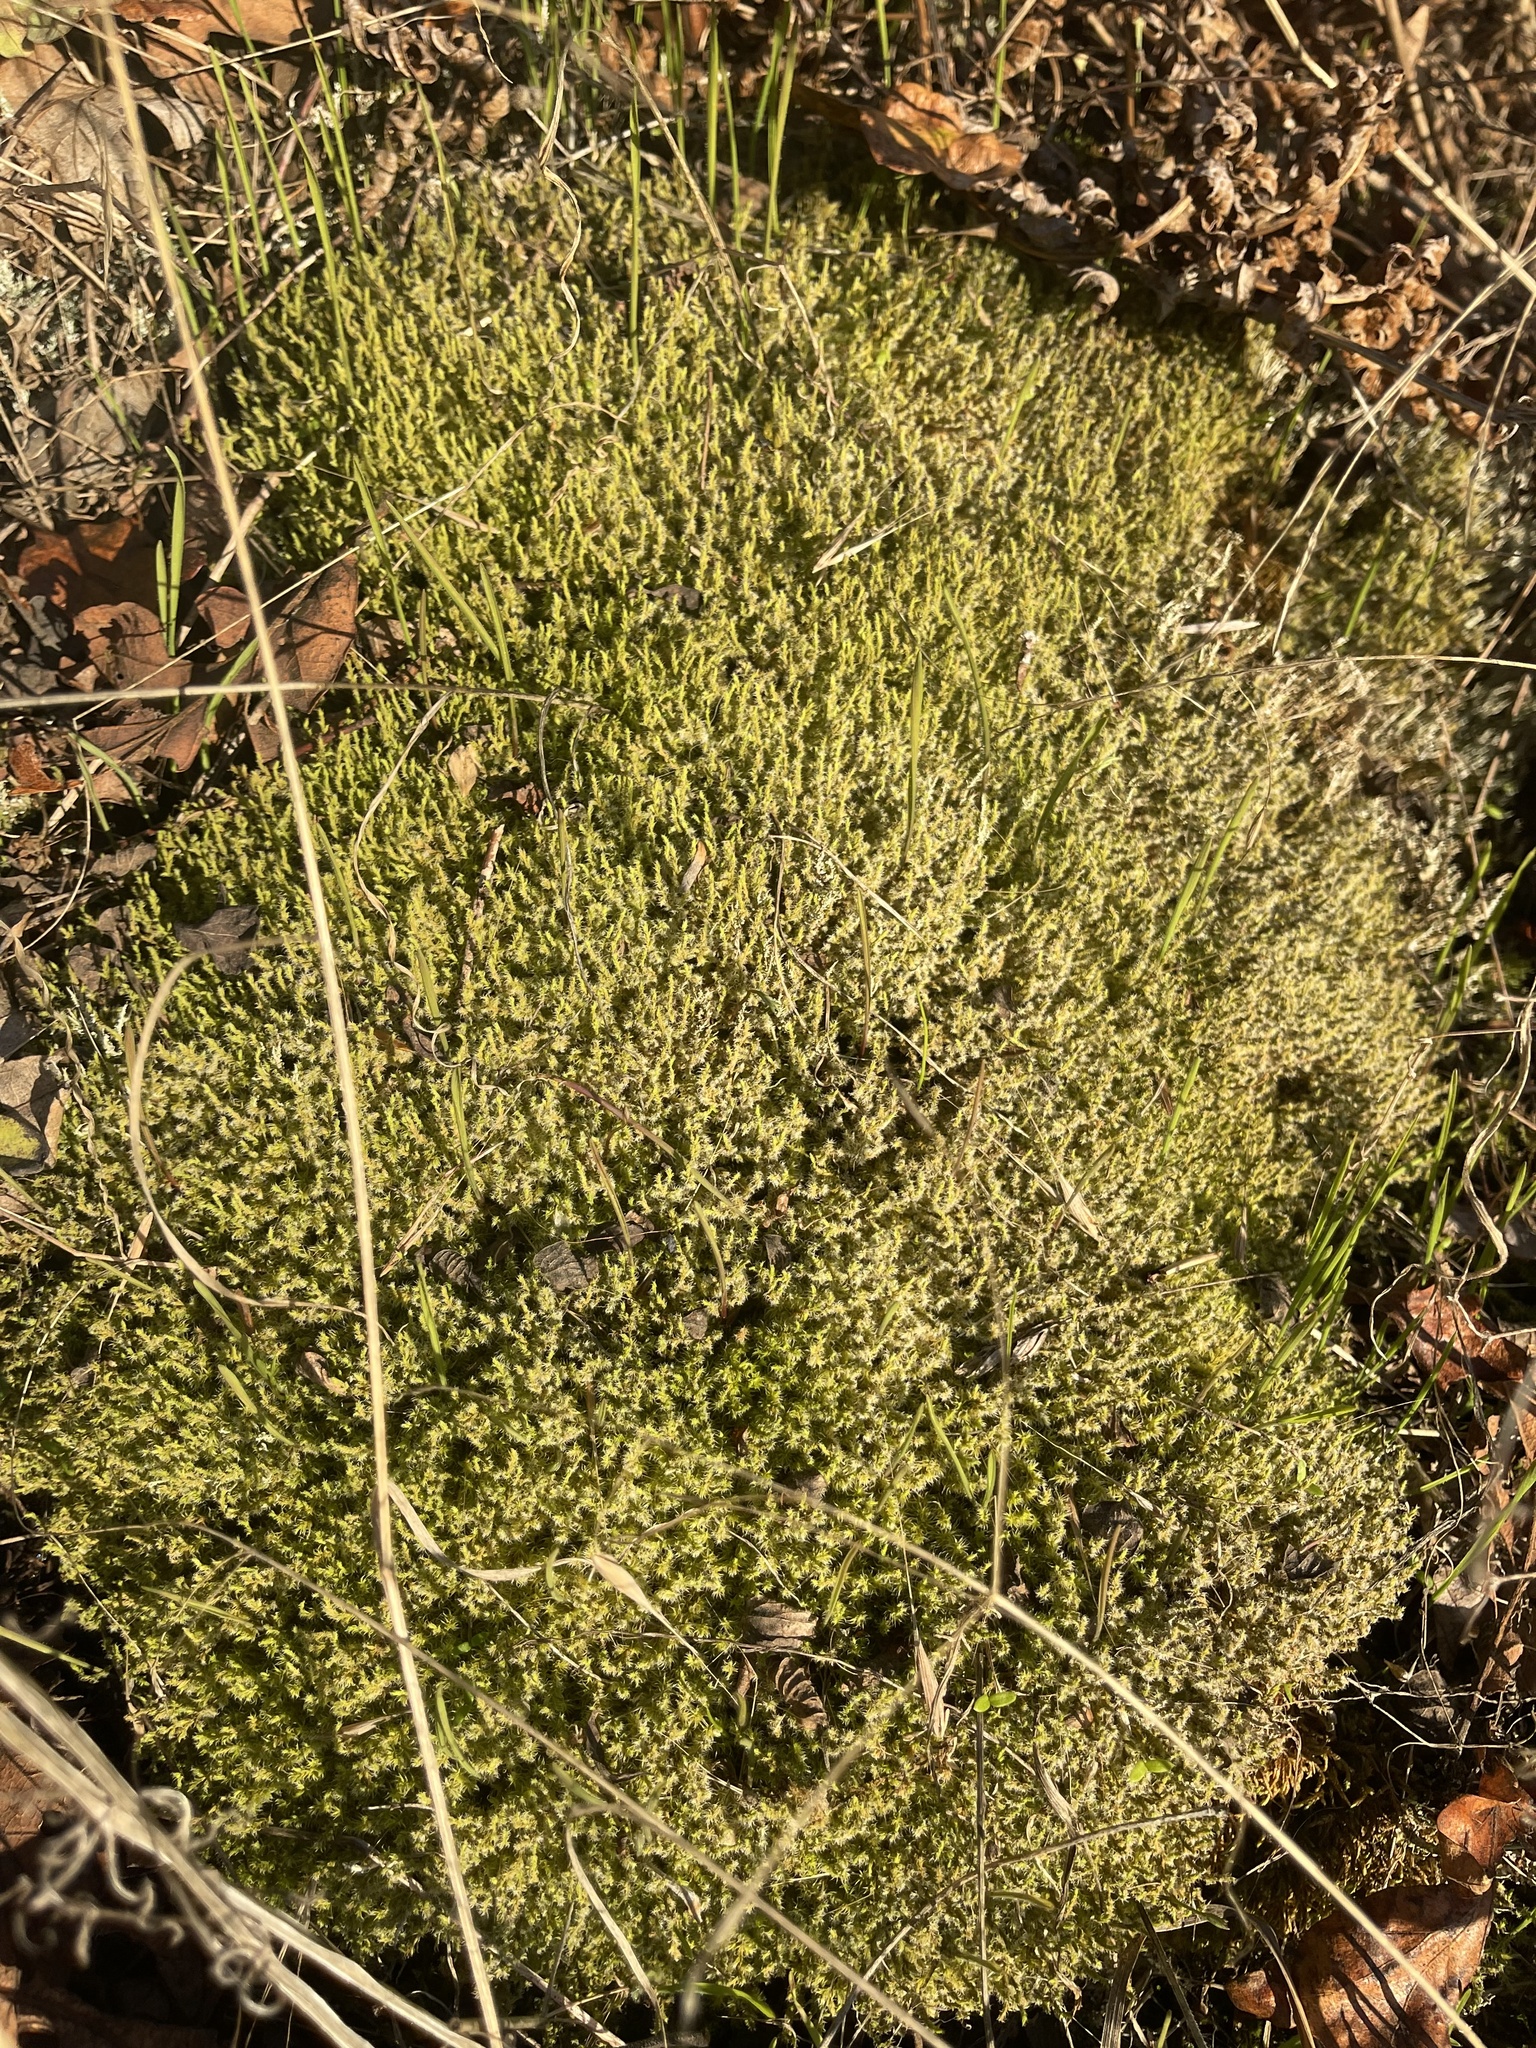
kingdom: Plantae
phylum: Bryophyta
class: Bryopsida
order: Grimmiales
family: Grimmiaceae
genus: Niphotrichum
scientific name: Niphotrichum elongatum
